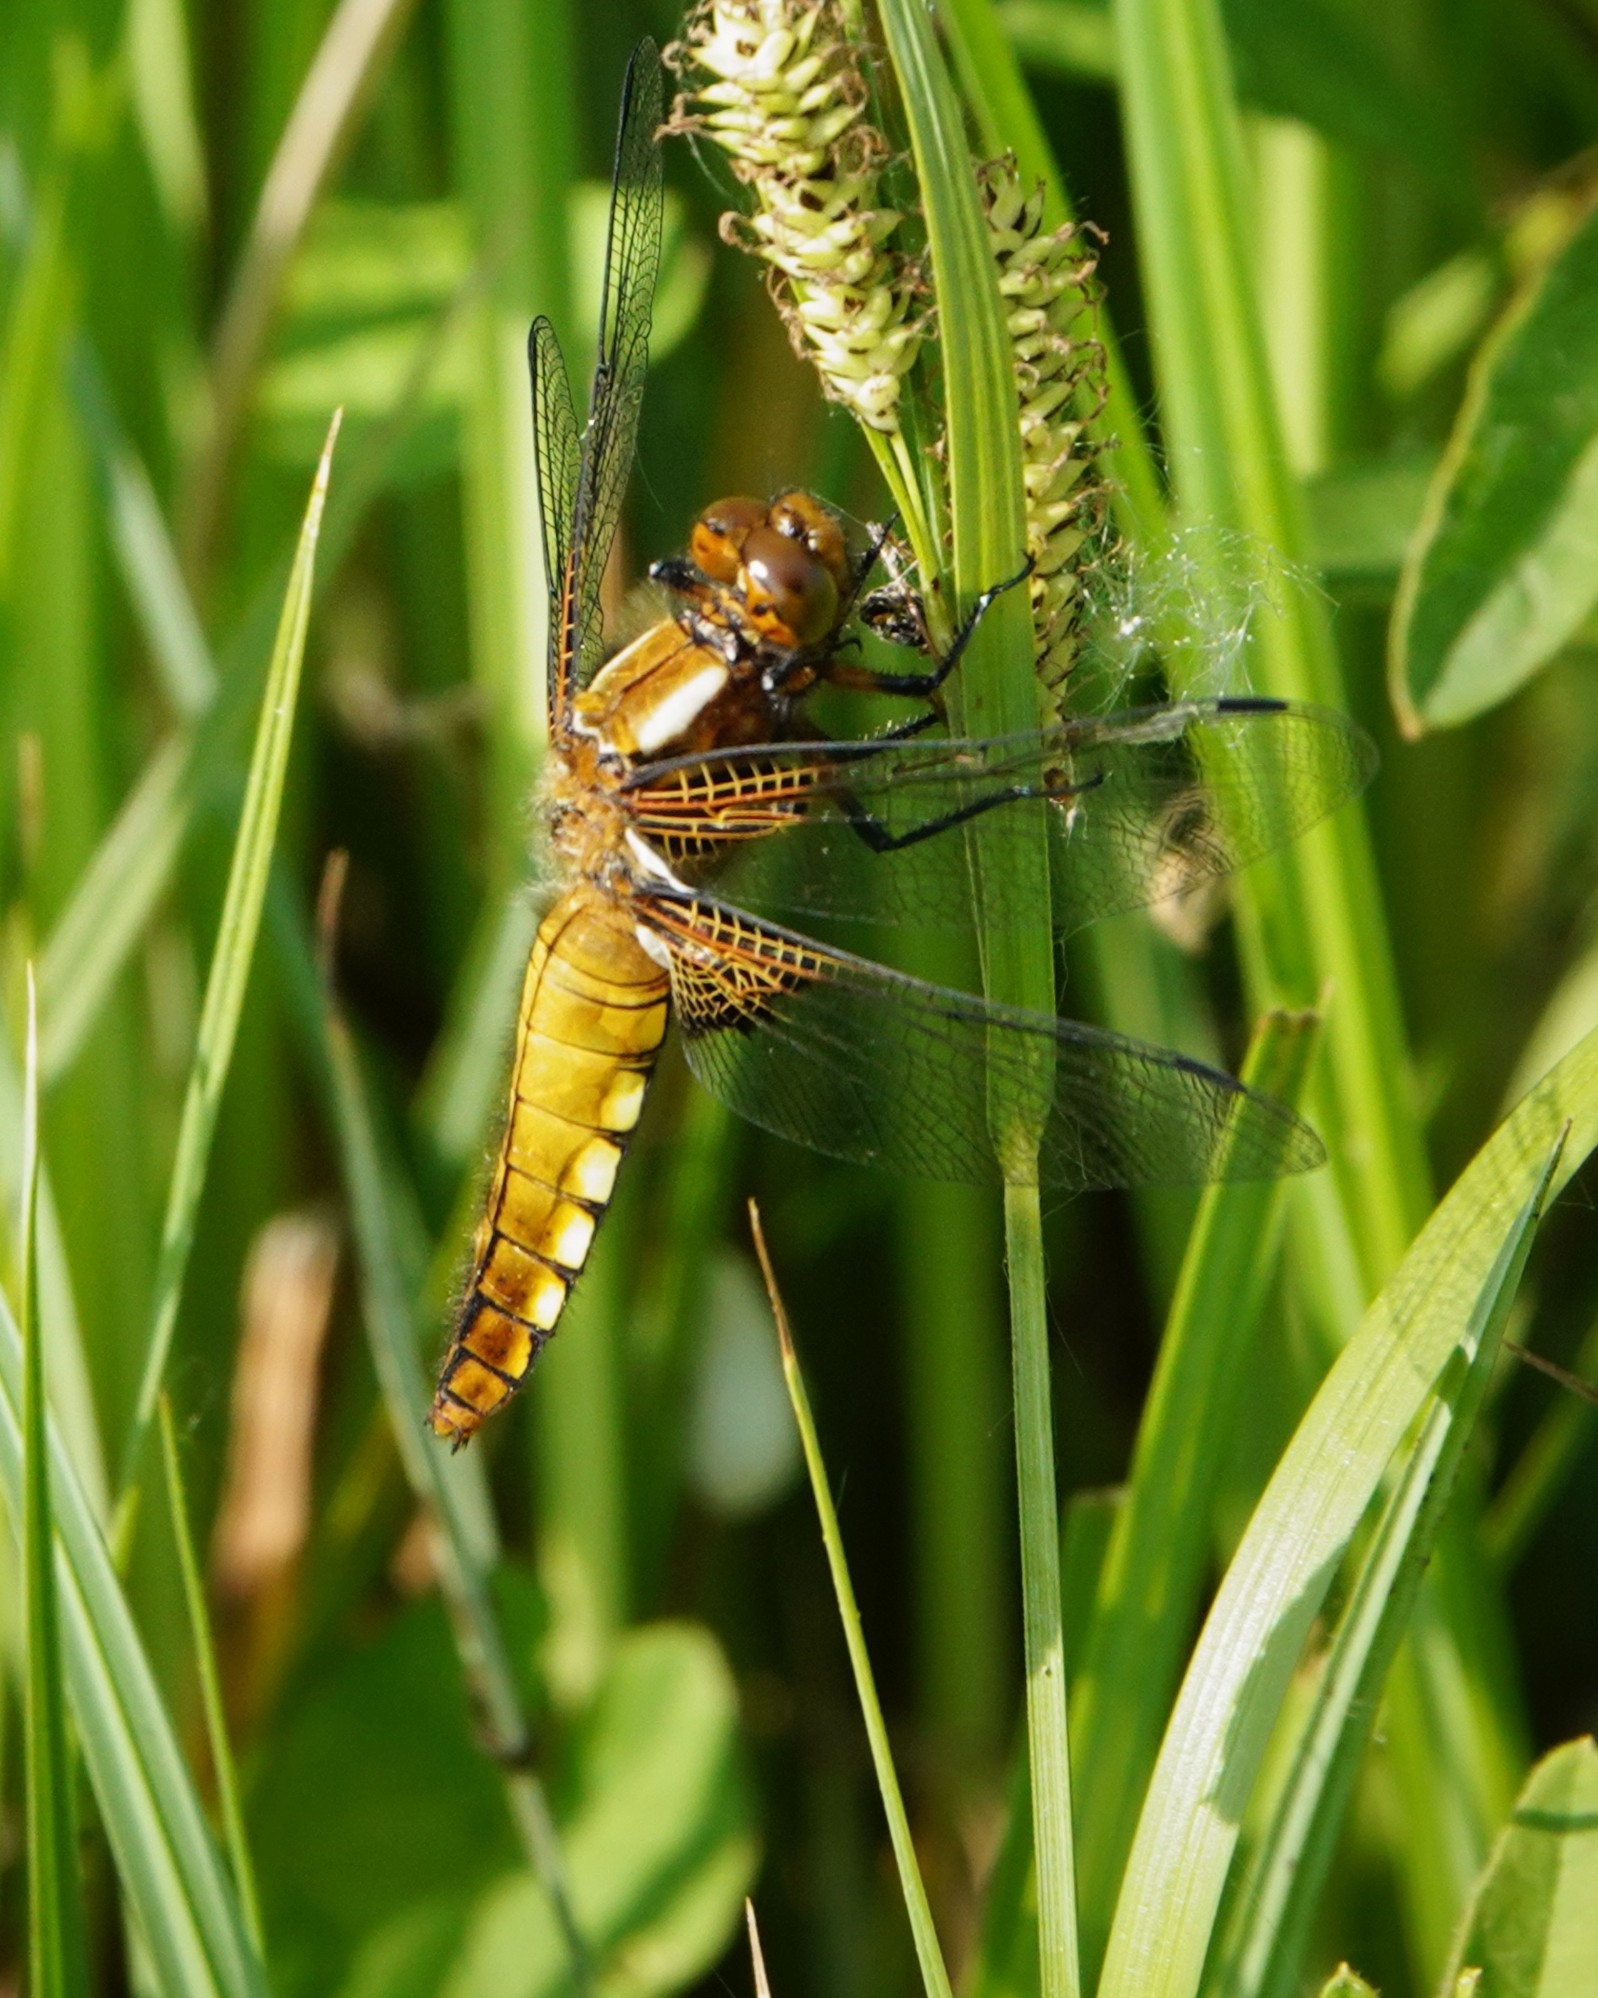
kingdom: Animalia
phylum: Arthropoda
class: Insecta
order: Odonata
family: Libellulidae
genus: Libellula
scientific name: Libellula depressa
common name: Broad-bodied chaser
